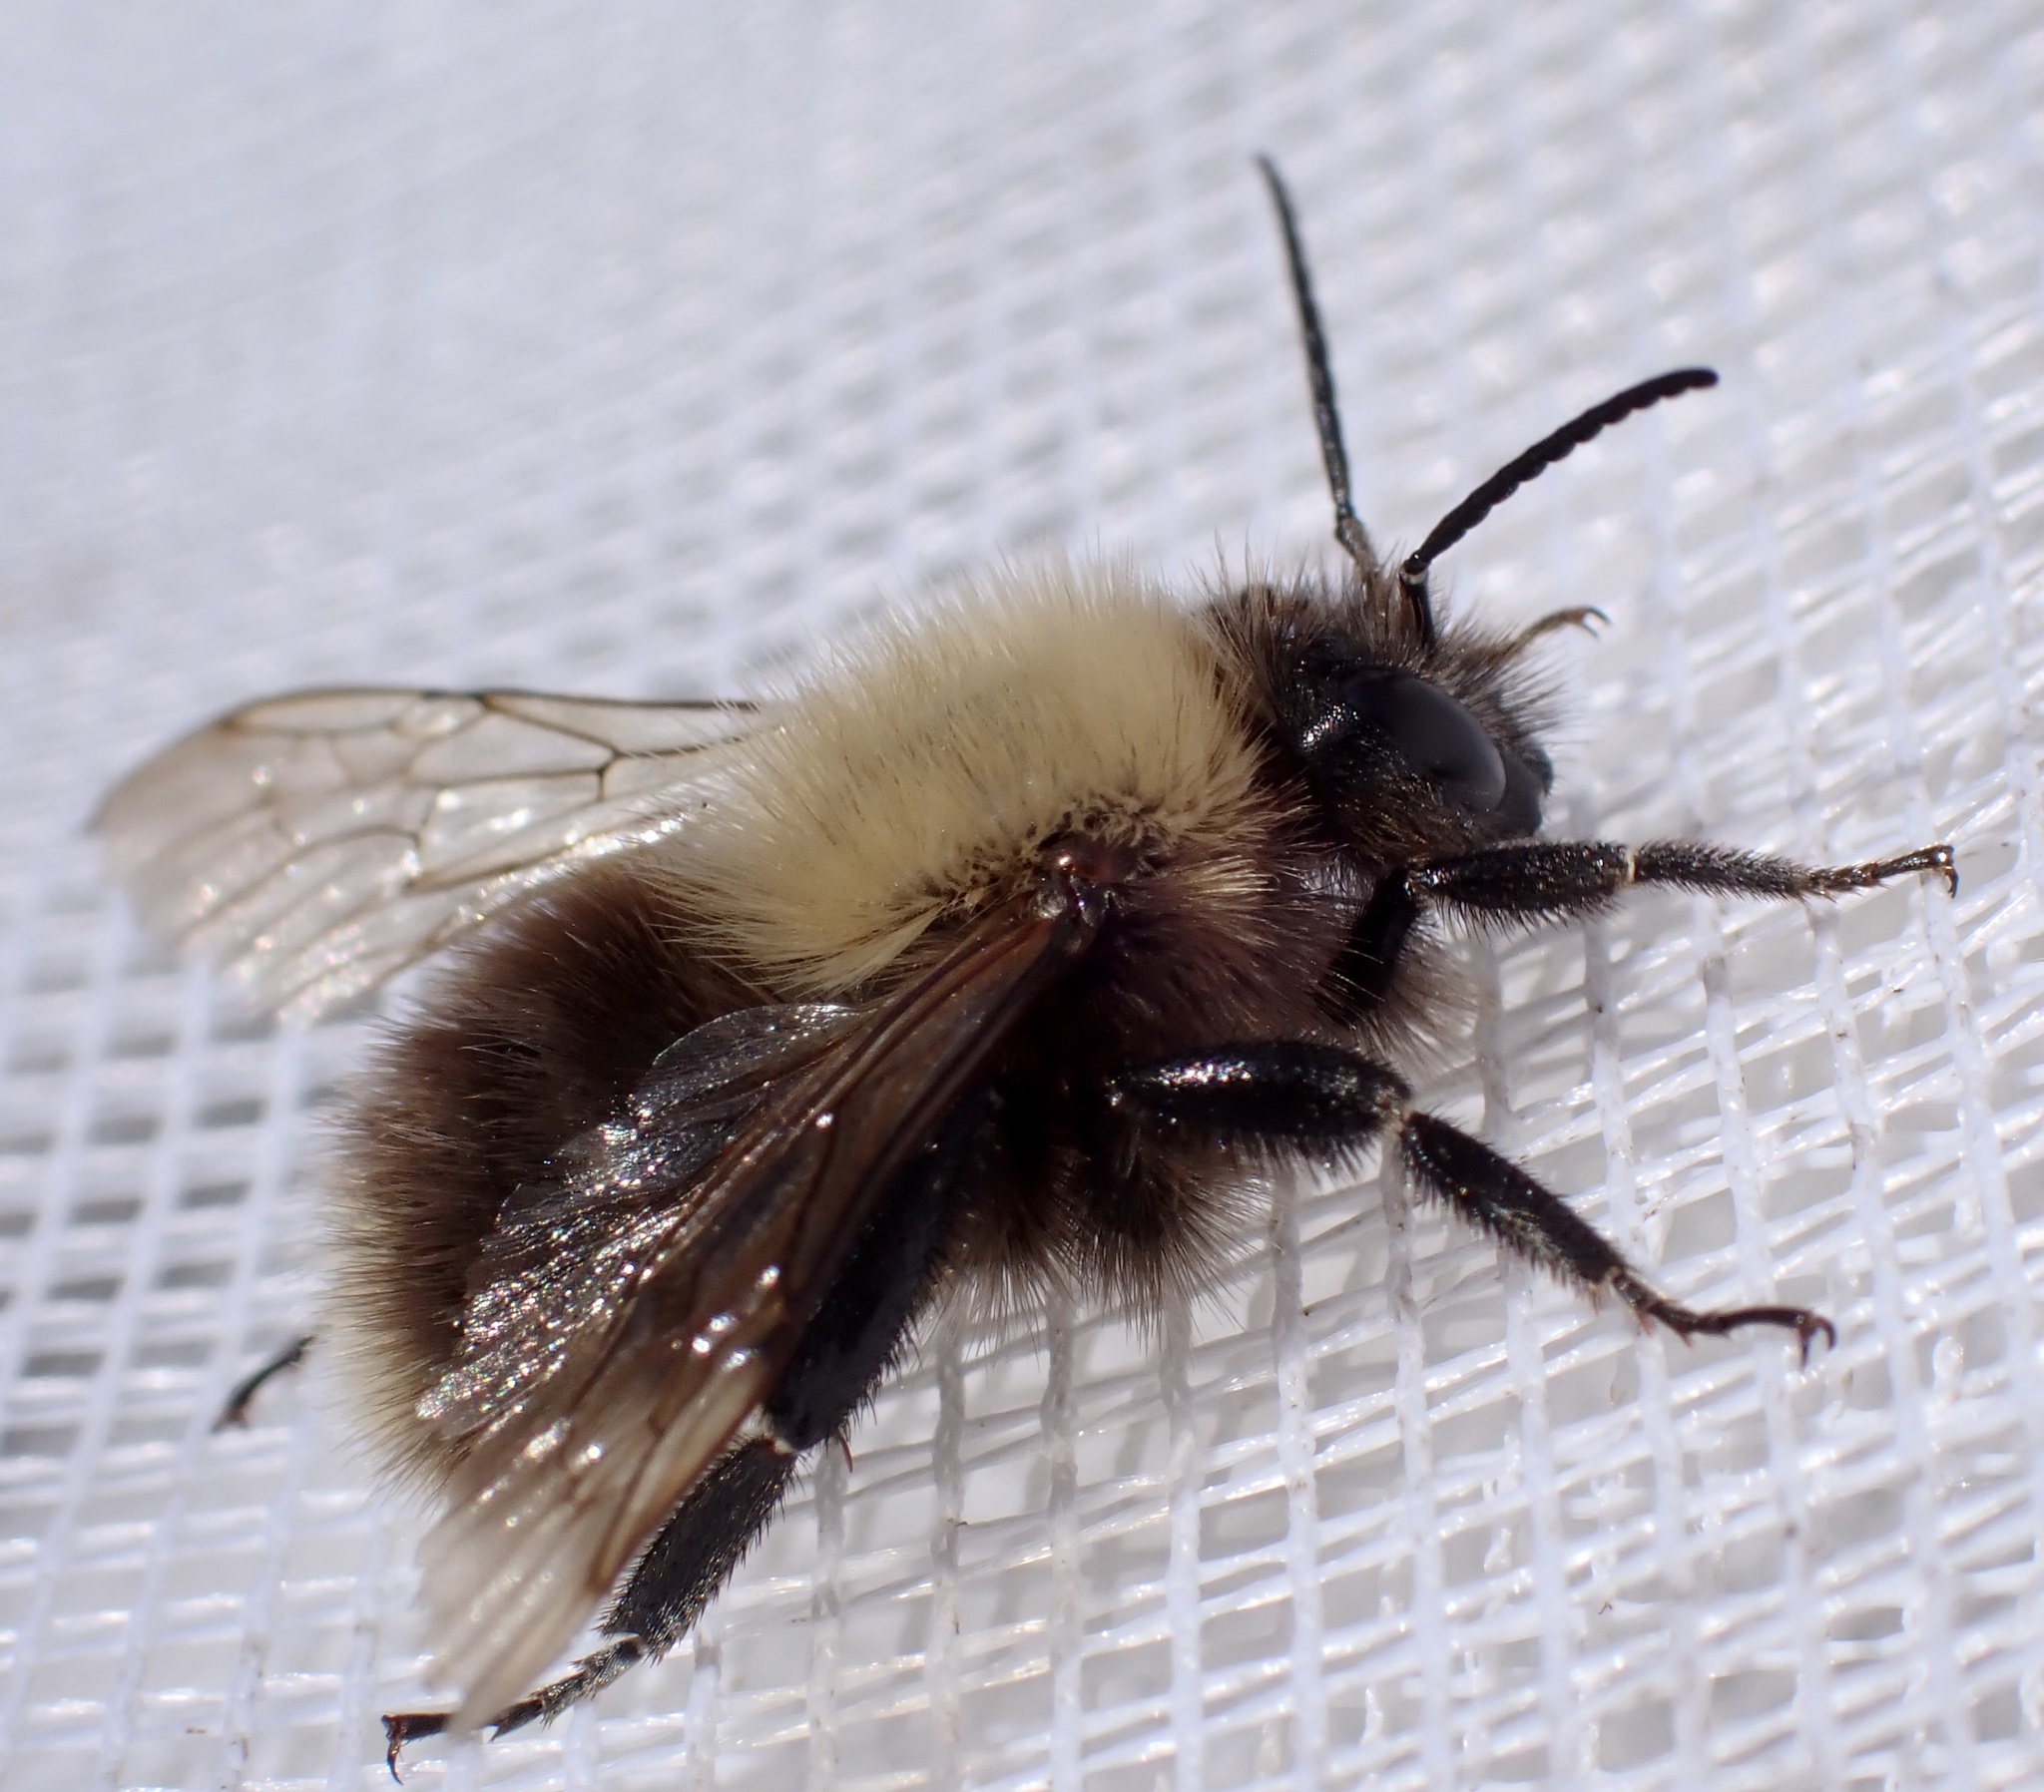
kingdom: Animalia
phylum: Arthropoda
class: Insecta
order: Hymenoptera
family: Apidae
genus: Bombus
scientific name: Bombus pascuorum
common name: Common carder bee
